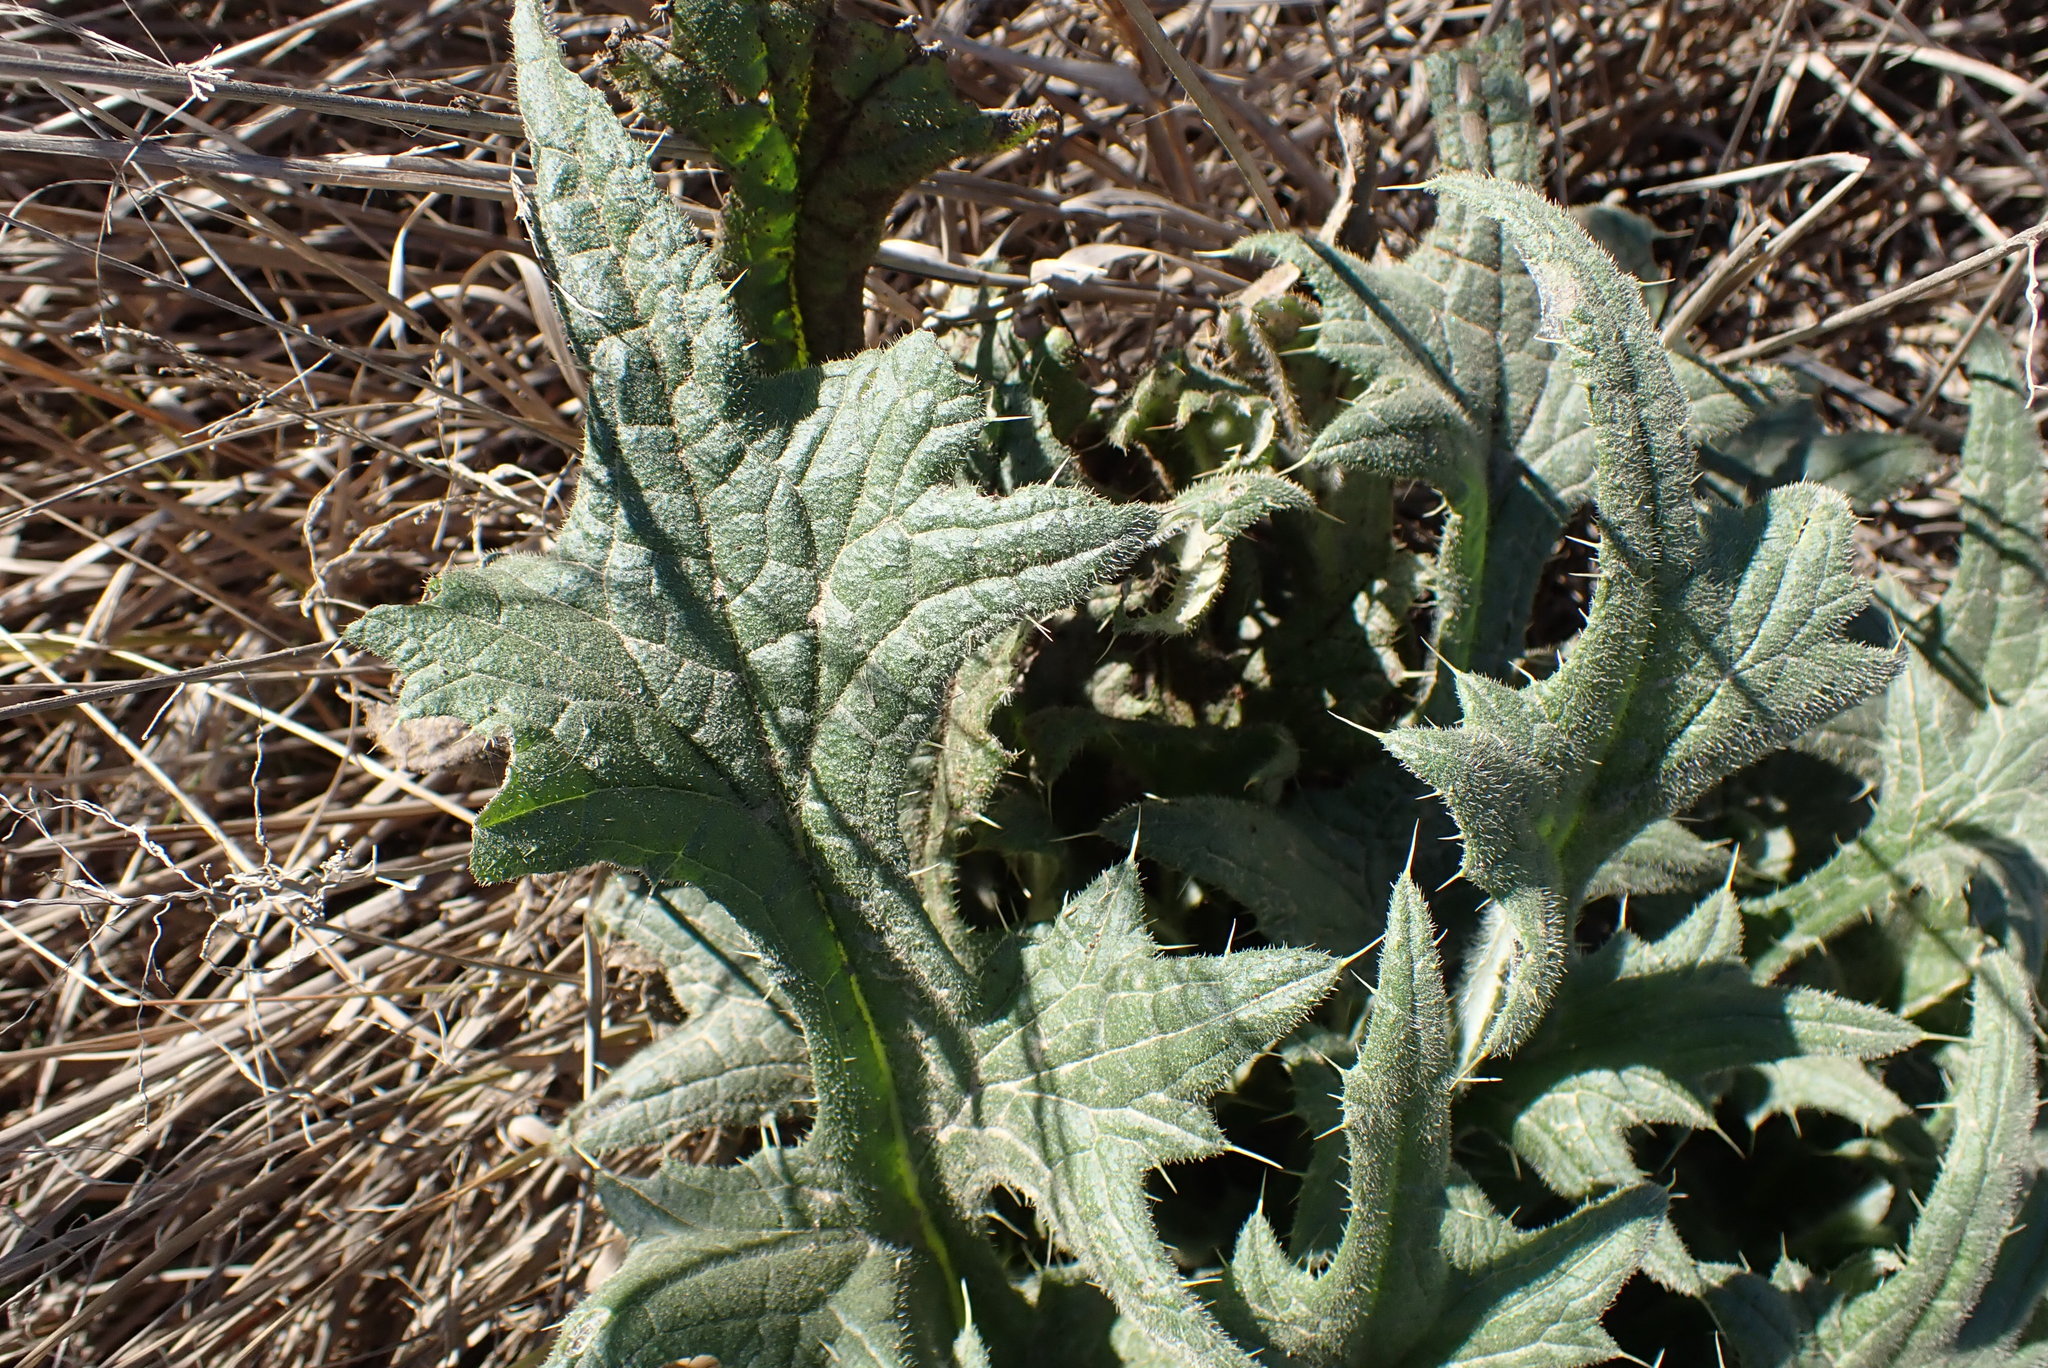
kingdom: Plantae
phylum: Tracheophyta
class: Magnoliopsida
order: Asterales
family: Asteraceae
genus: Cirsium
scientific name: Cirsium vulgare
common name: Bull thistle
